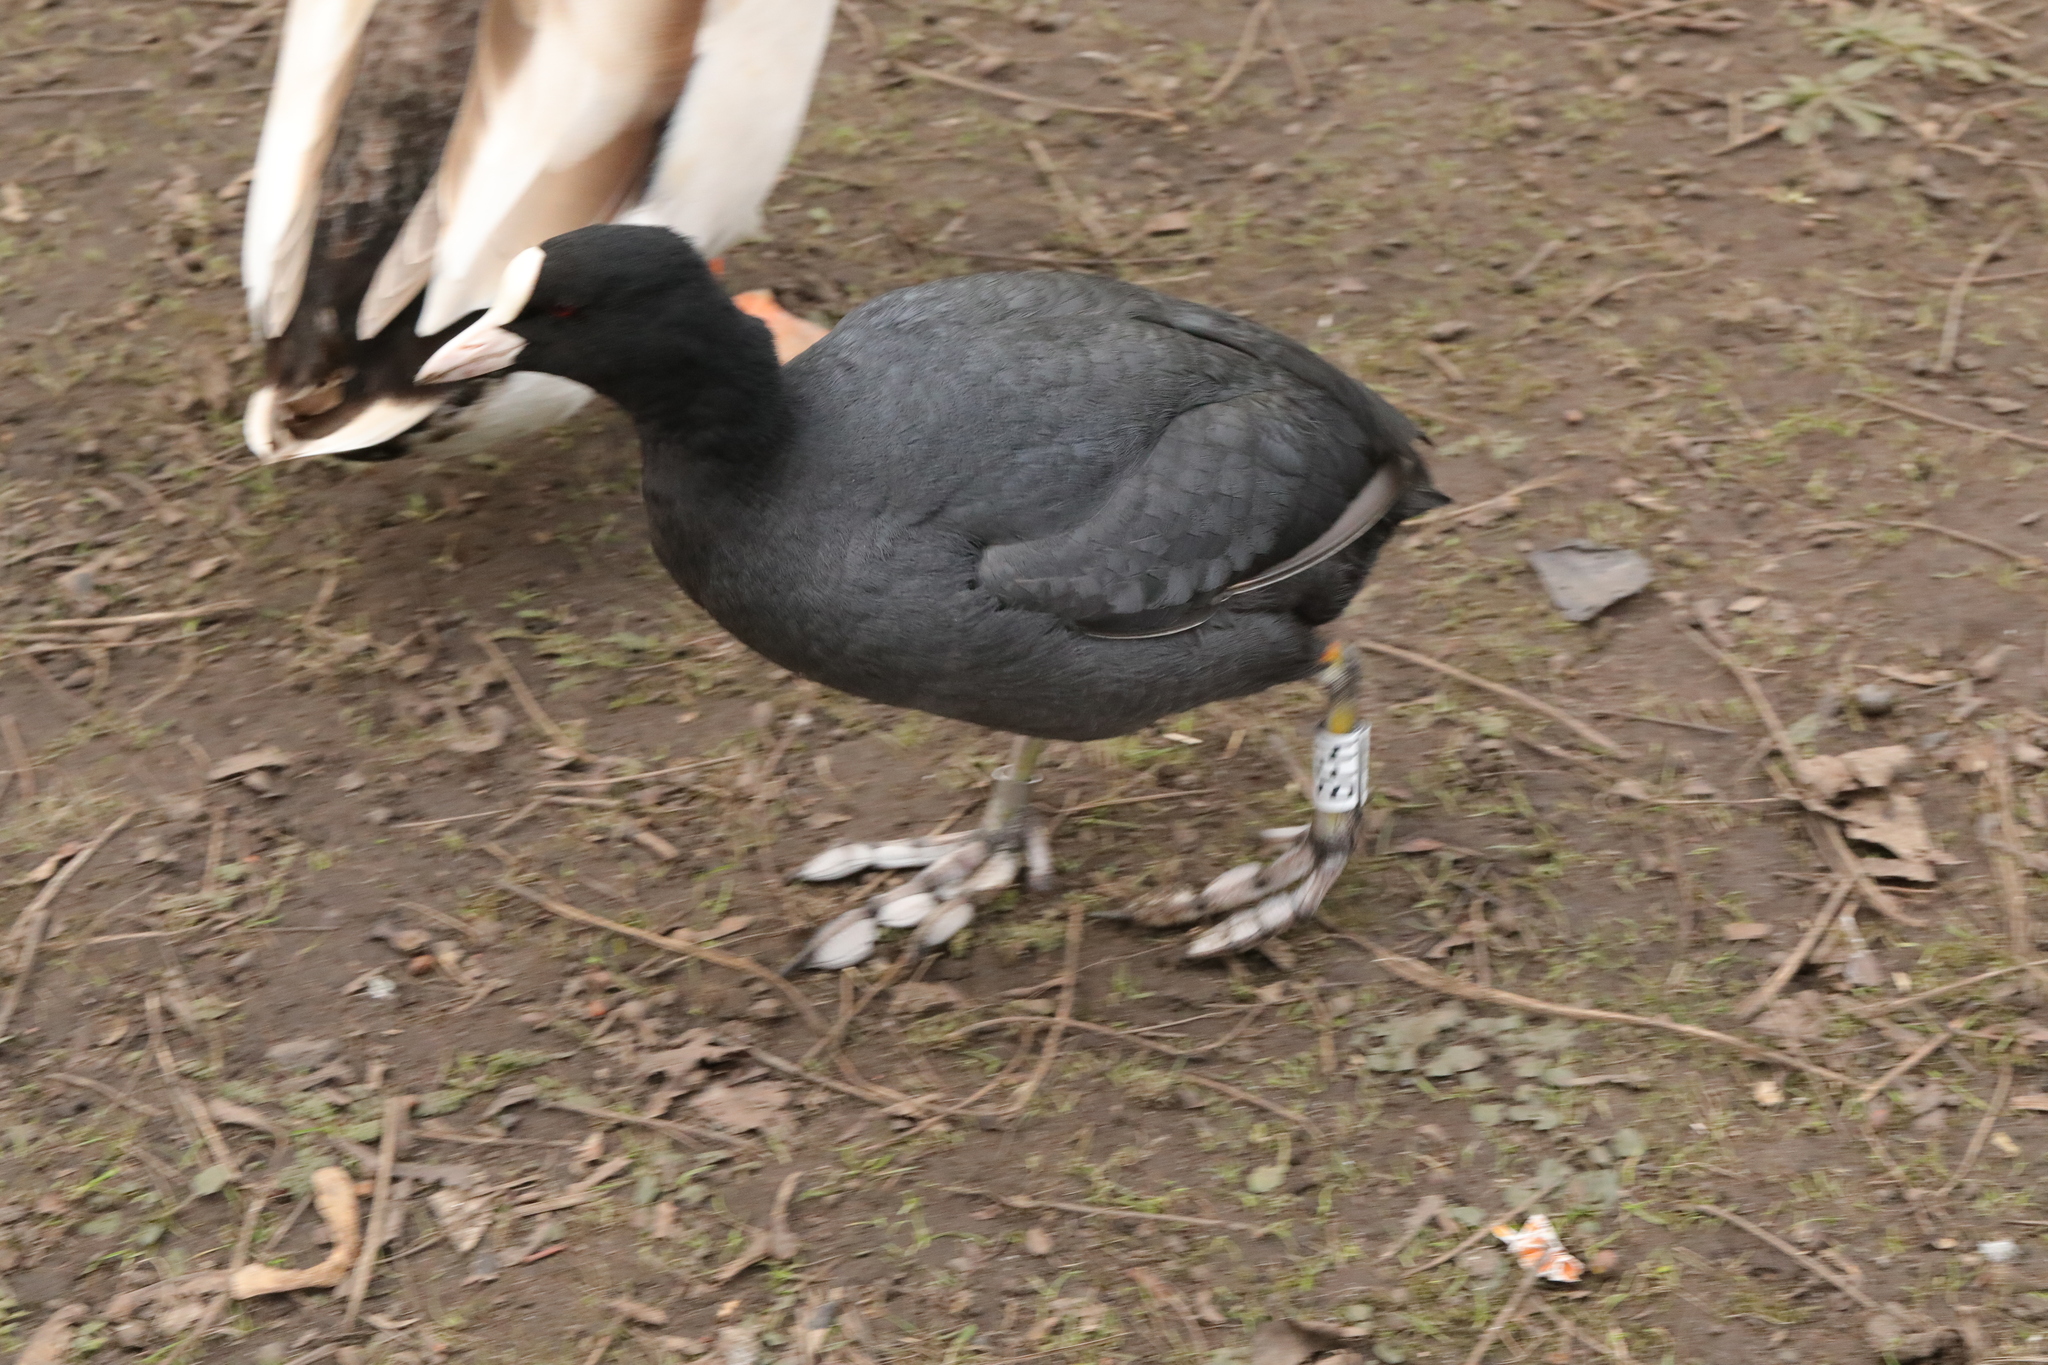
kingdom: Animalia
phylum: Chordata
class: Aves
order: Gruiformes
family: Rallidae
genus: Fulica
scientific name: Fulica atra
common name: Eurasian coot
